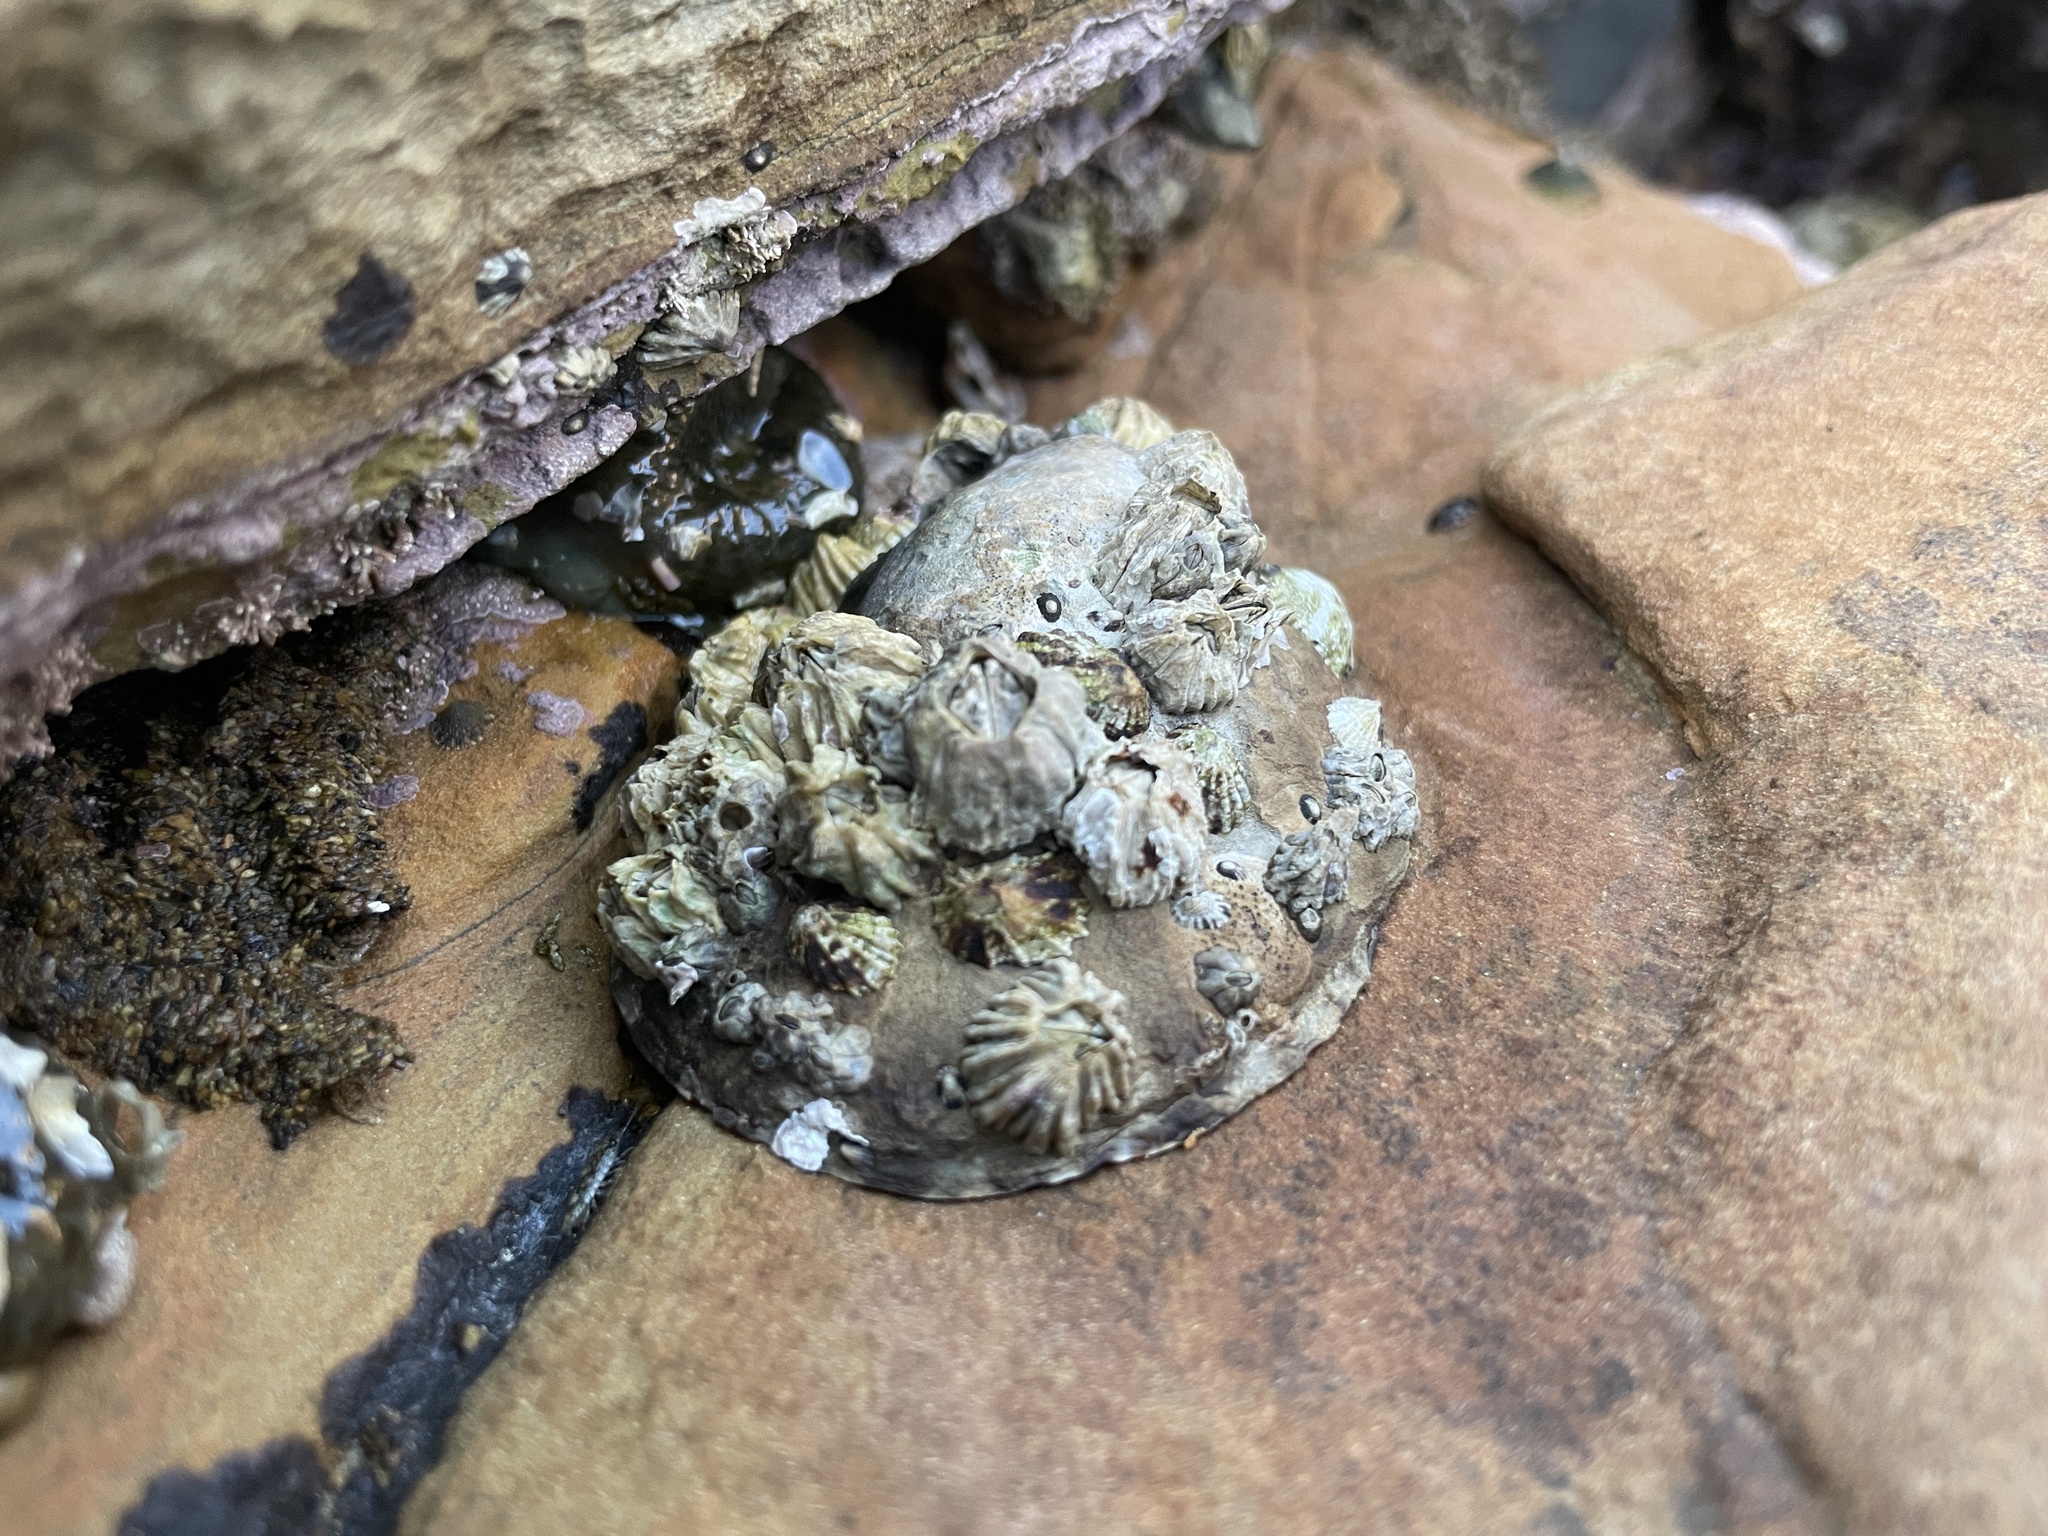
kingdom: Animalia
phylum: Mollusca
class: Gastropoda
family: Lottiidae
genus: Lottia
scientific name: Lottia gigantea
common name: Owl limpet
